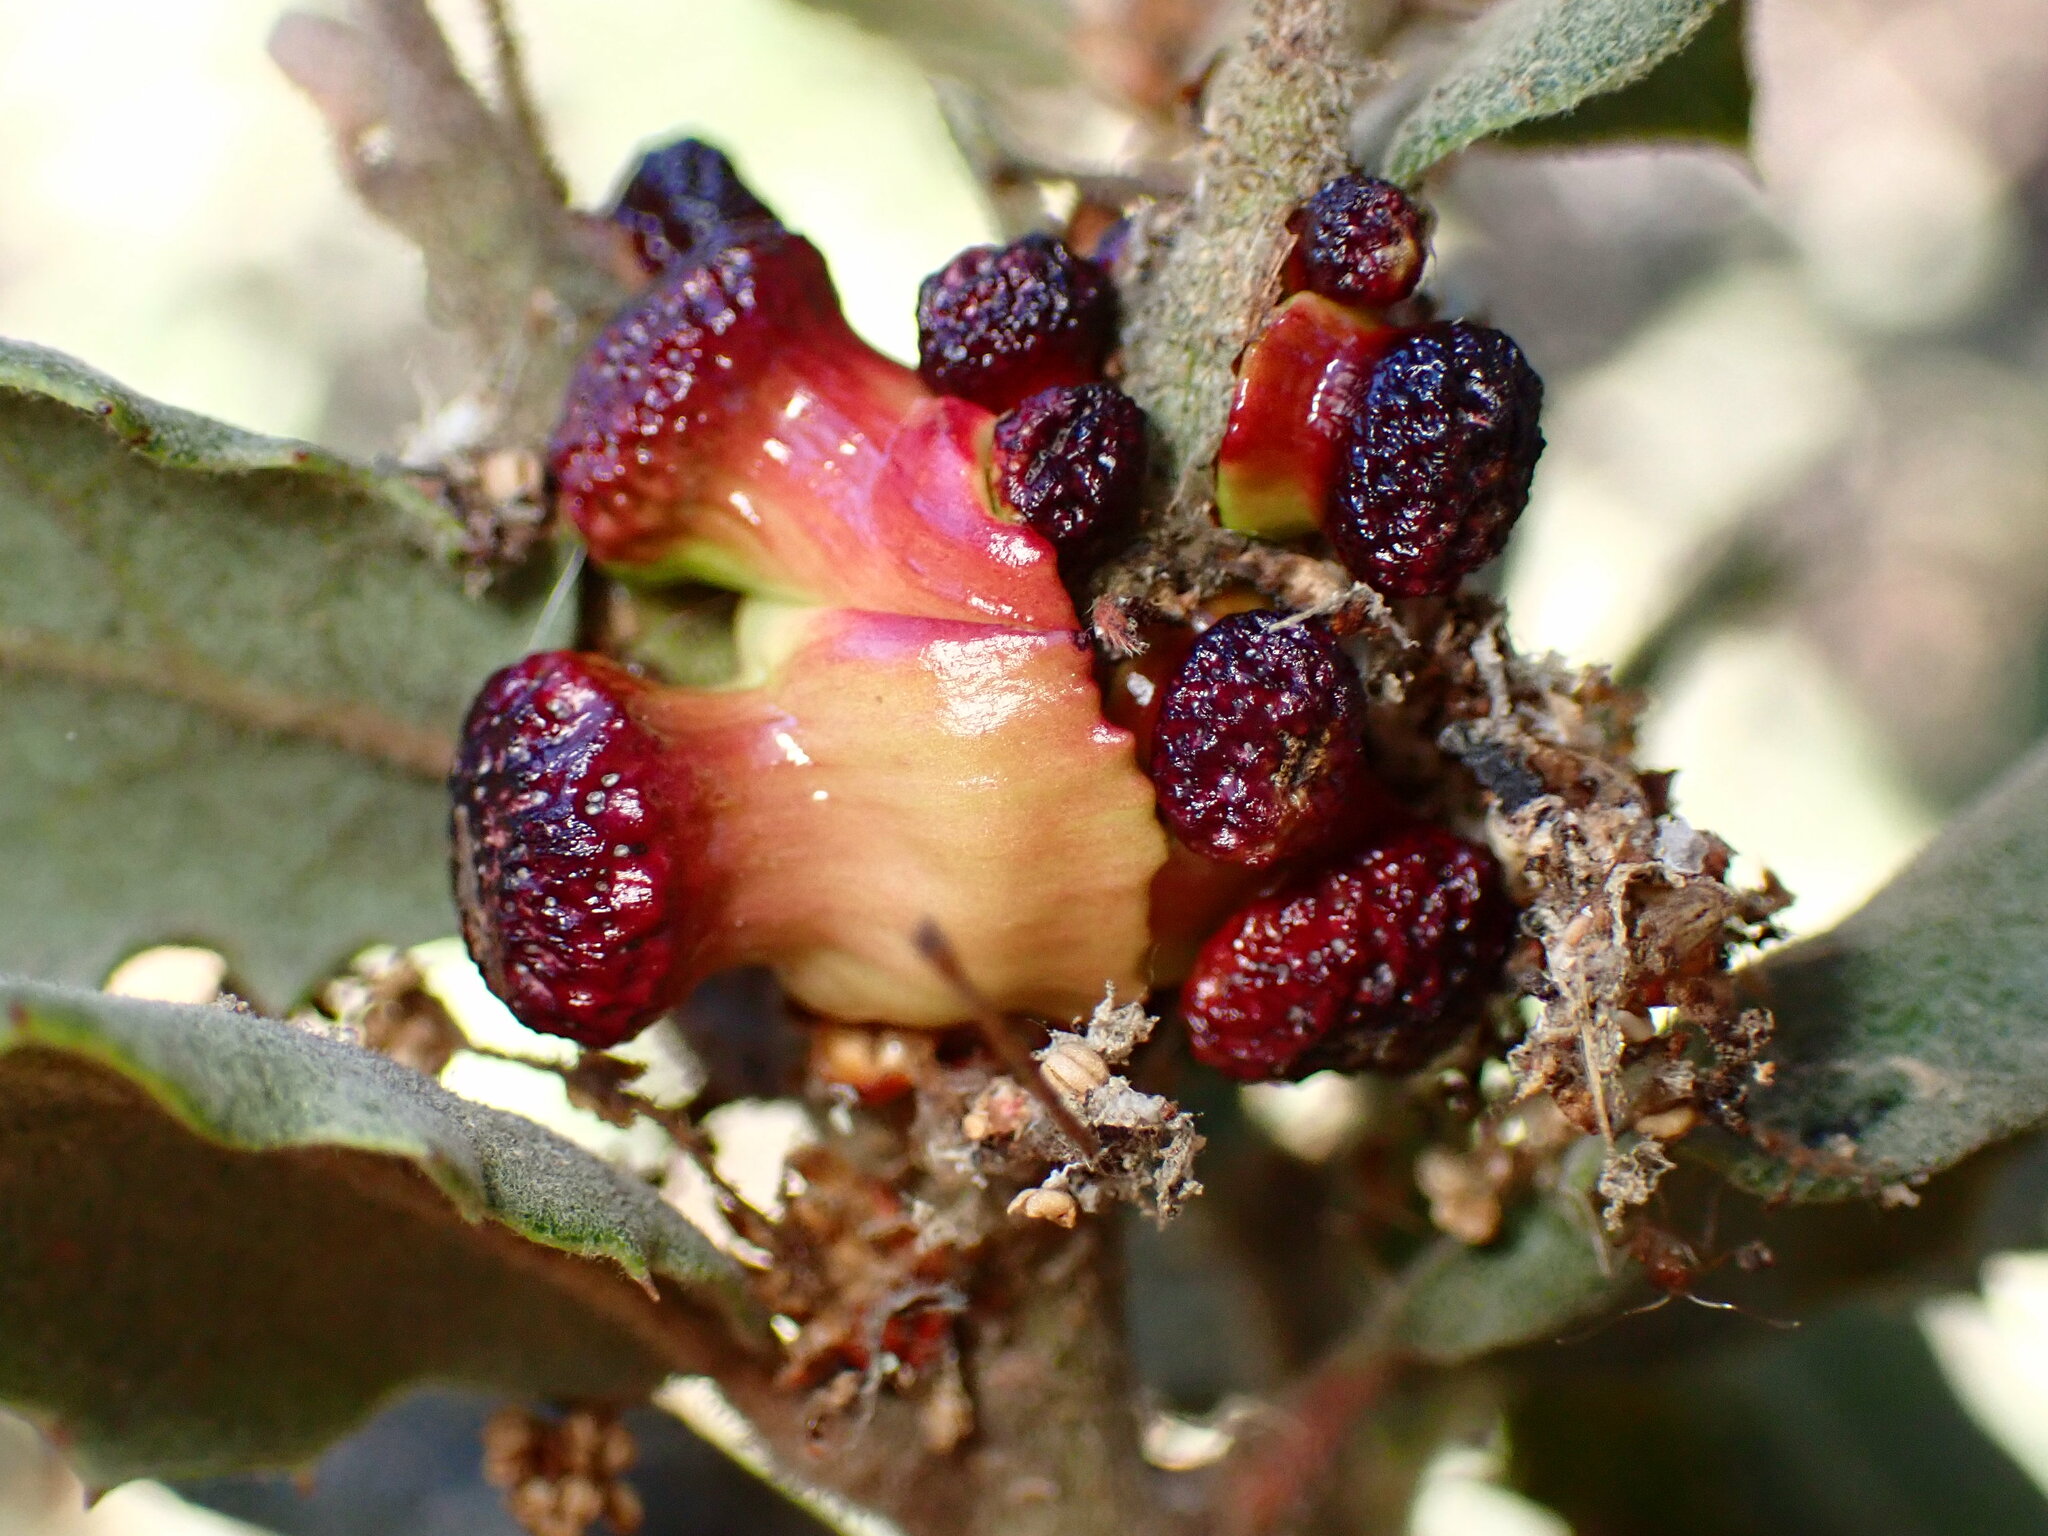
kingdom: Animalia
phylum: Arthropoda
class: Insecta
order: Hymenoptera
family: Cynipidae
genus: Disholcaspis
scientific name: Disholcaspis prehensa
